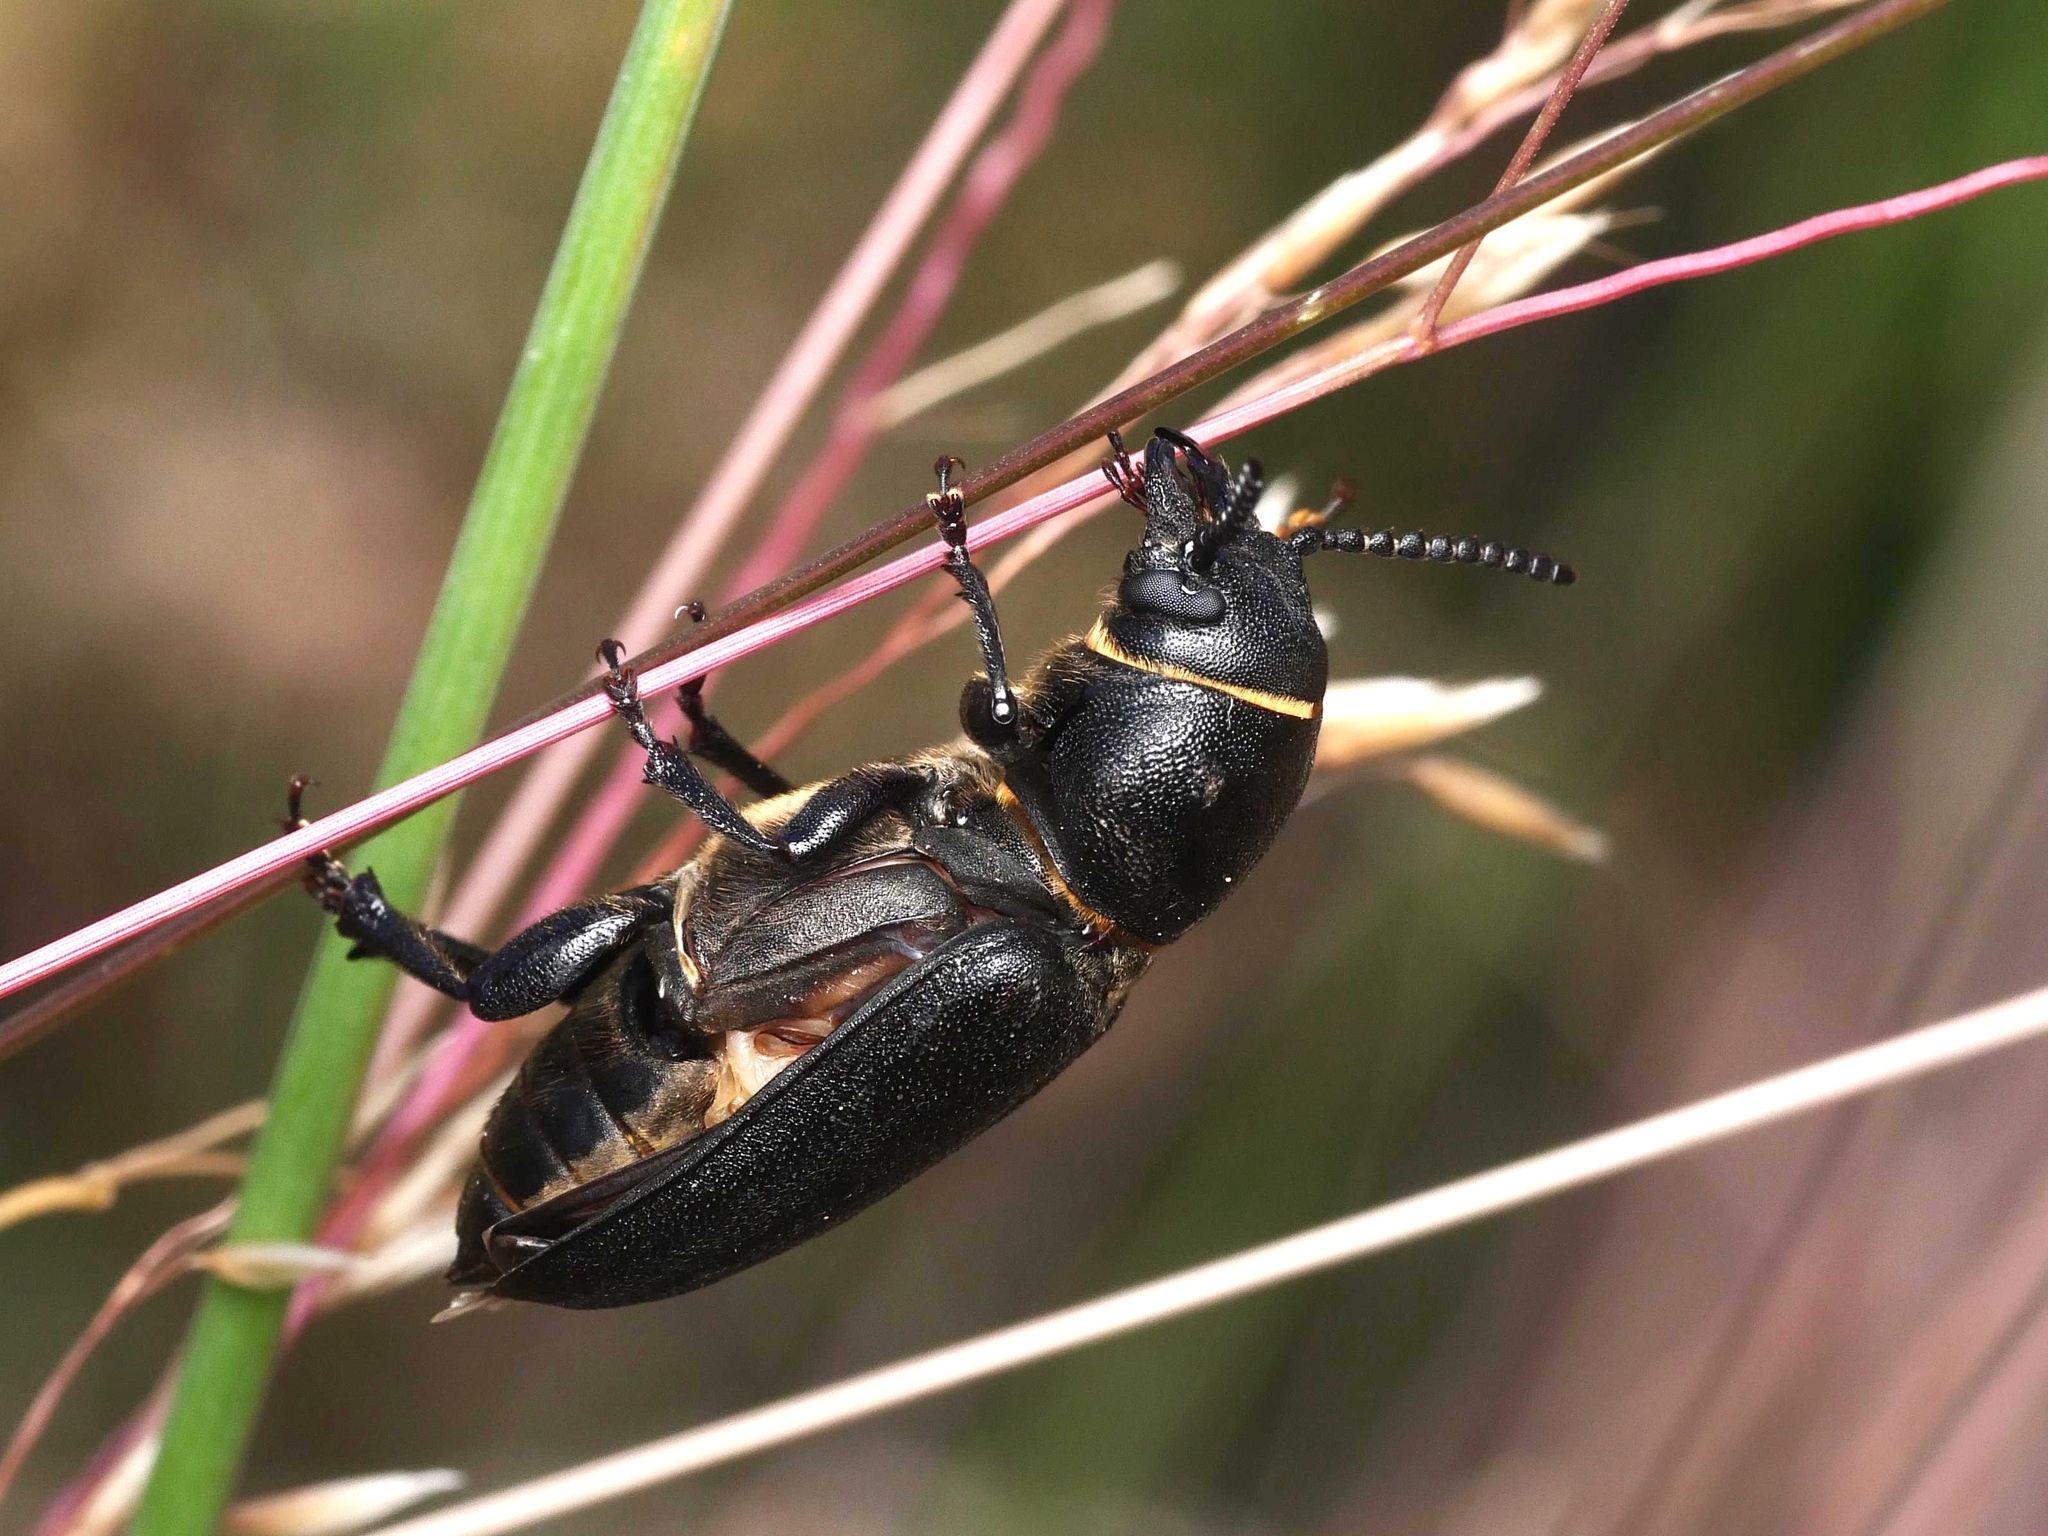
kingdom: Animalia
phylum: Arthropoda
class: Insecta
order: Coleoptera
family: Cerambycidae
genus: Spondylis
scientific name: Spondylis buprestoides
